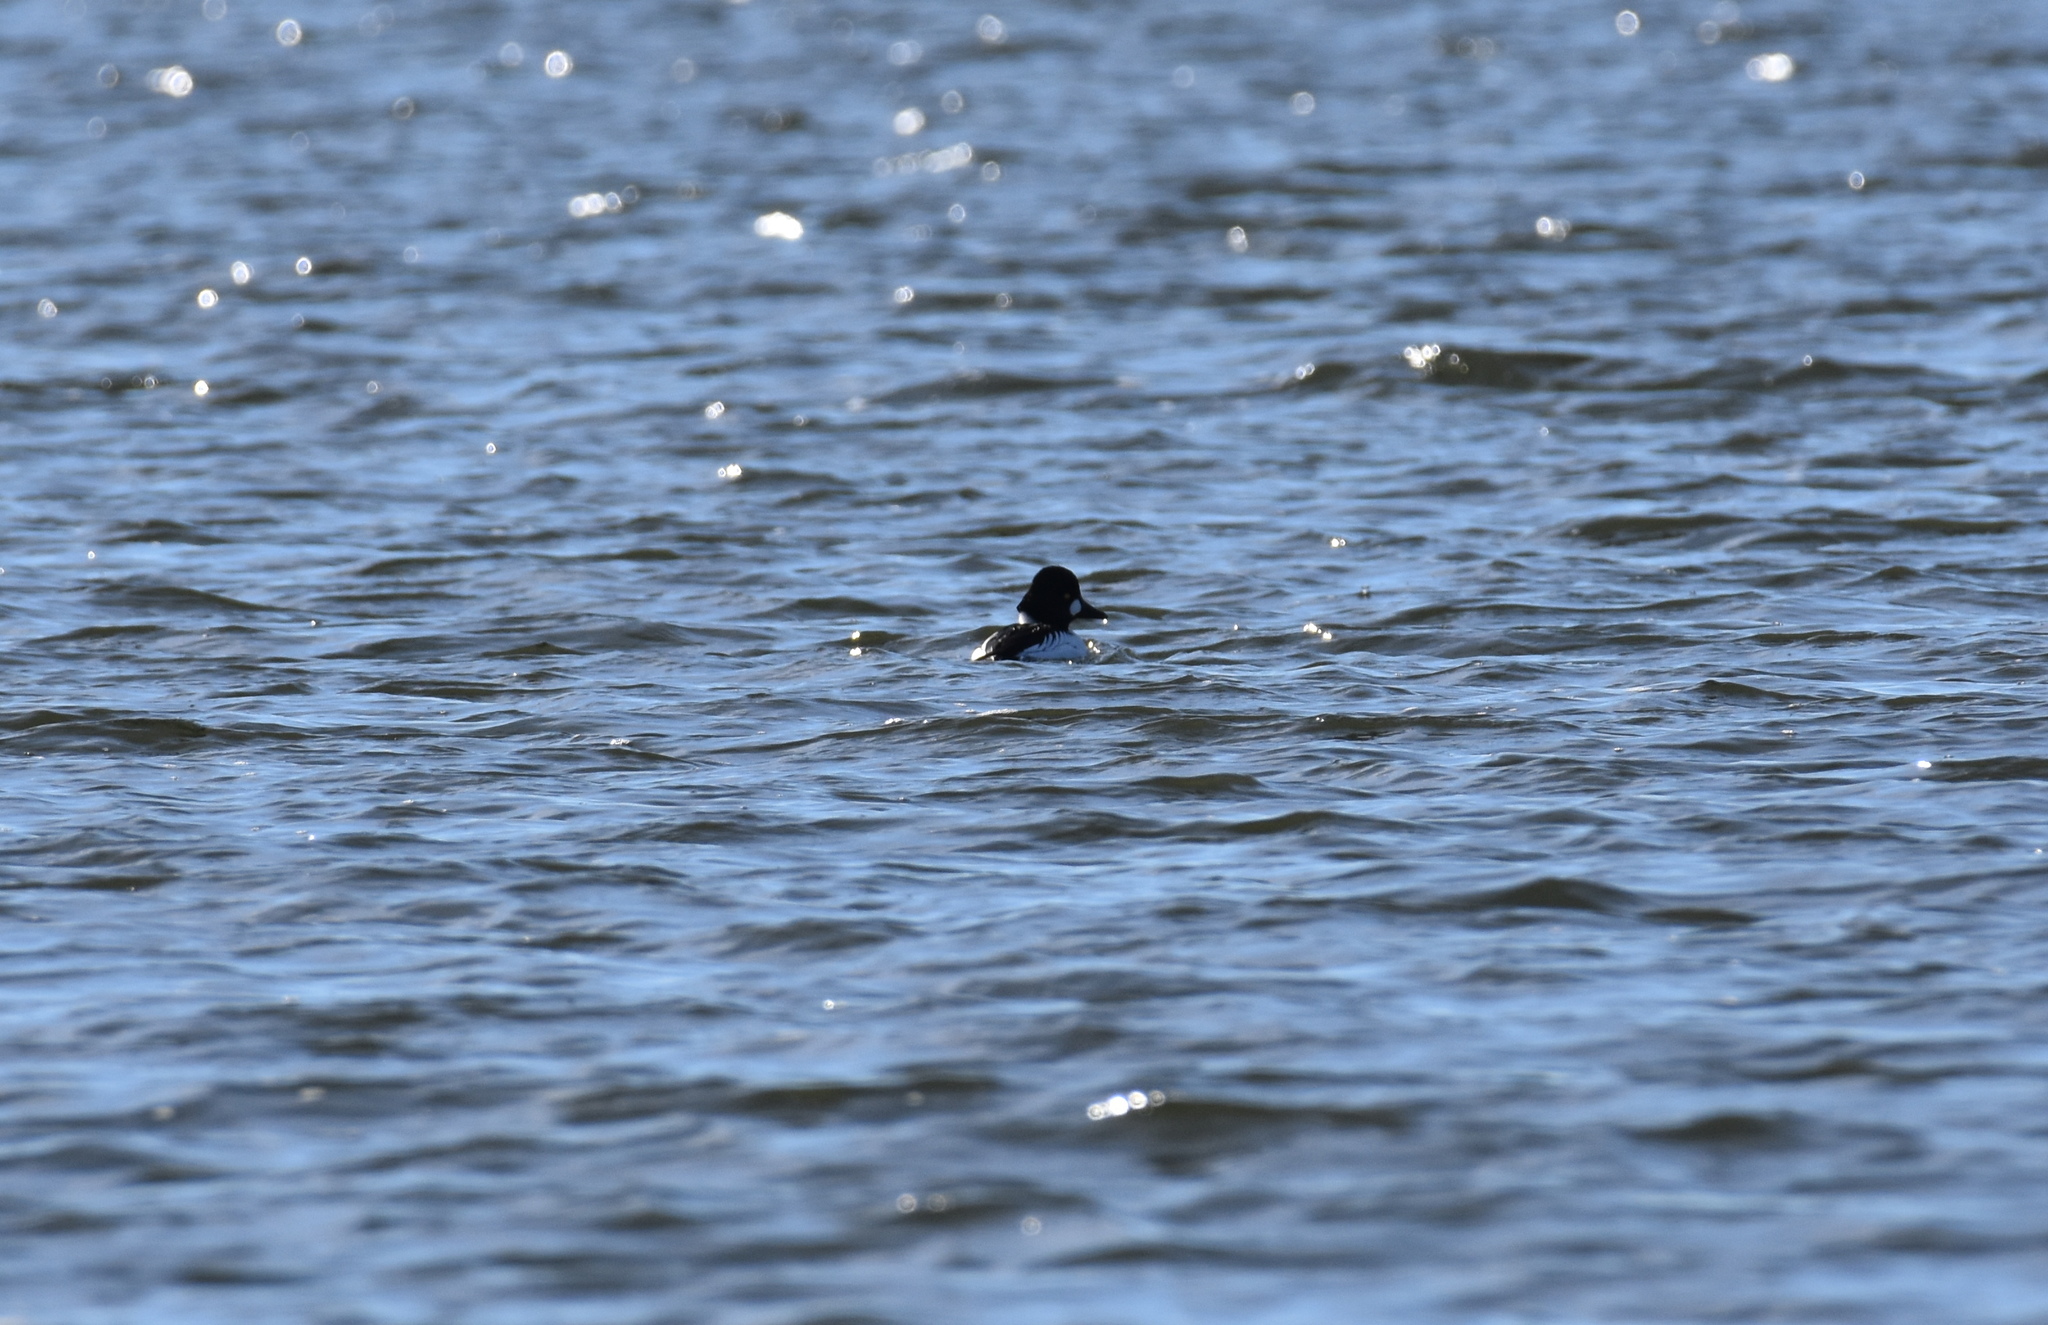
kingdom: Animalia
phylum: Chordata
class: Aves
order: Anseriformes
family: Anatidae
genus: Bucephala
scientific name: Bucephala clangula
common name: Common goldeneye
